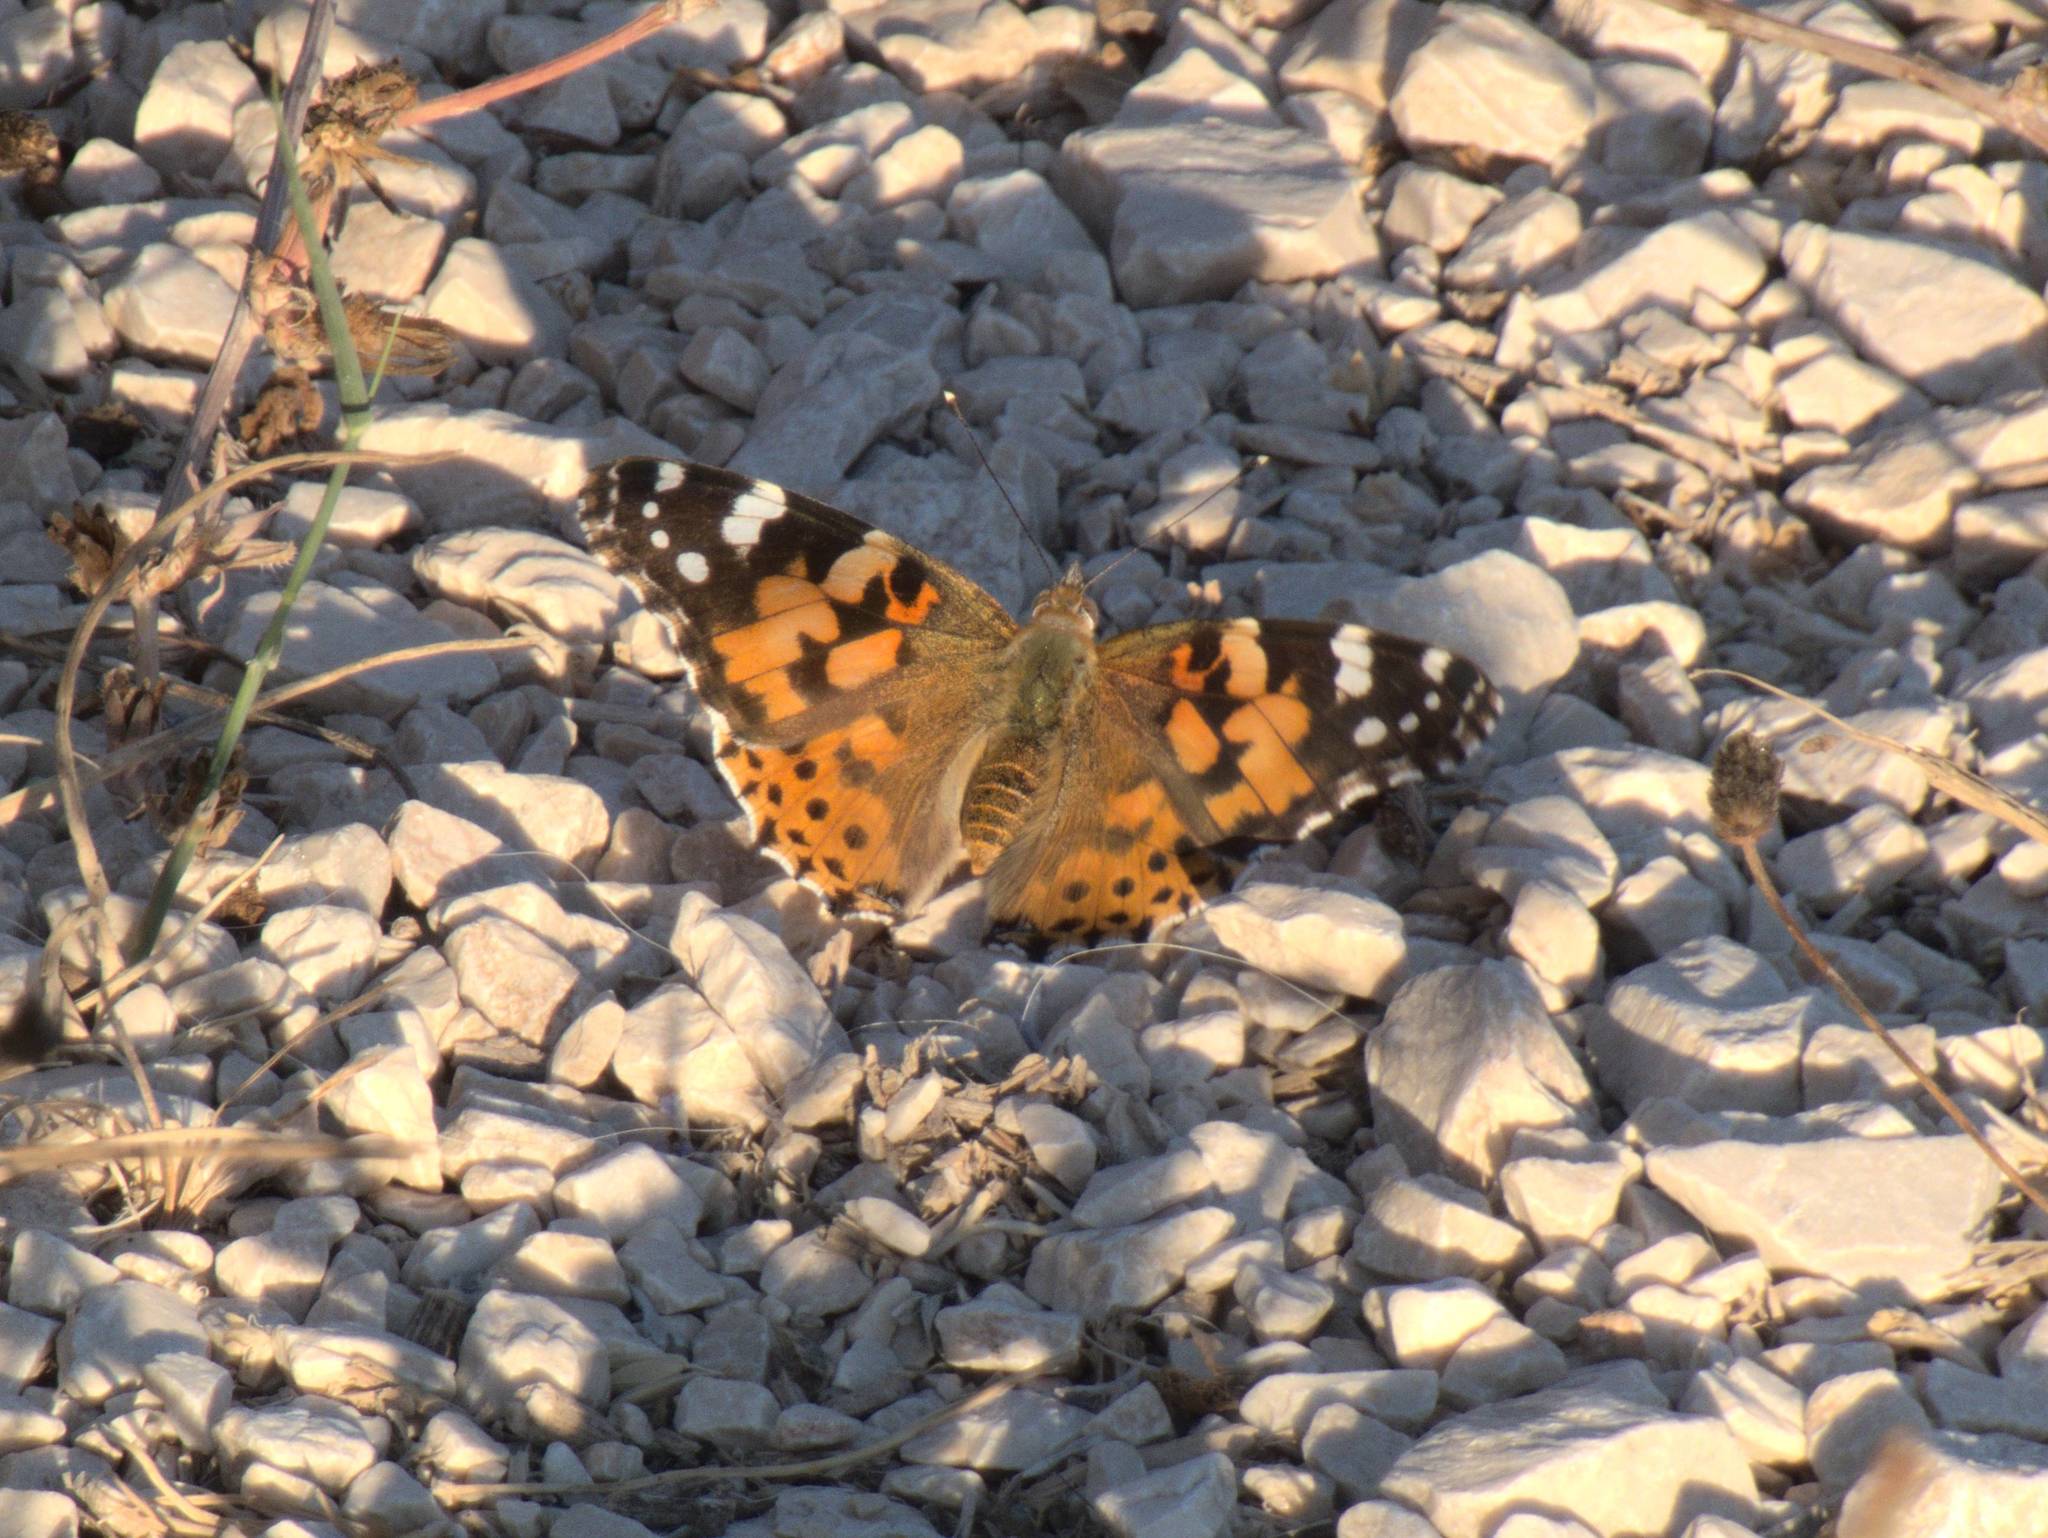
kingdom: Animalia
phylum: Arthropoda
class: Insecta
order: Lepidoptera
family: Nymphalidae
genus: Vanessa
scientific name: Vanessa cardui
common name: Painted lady
